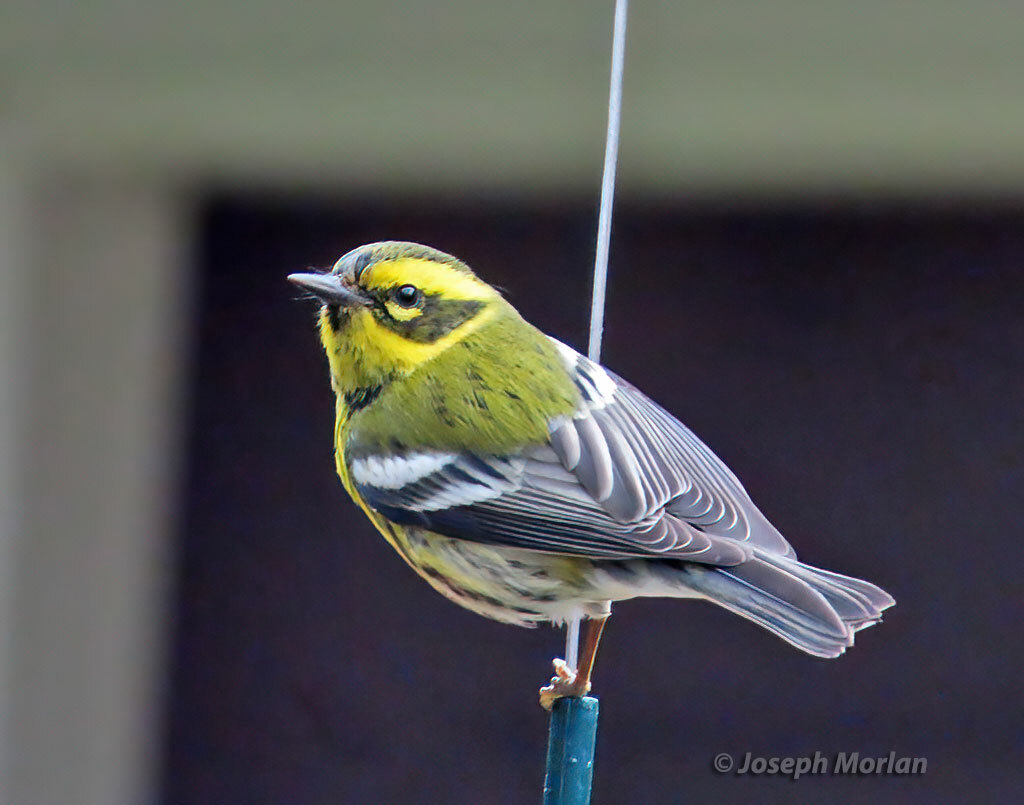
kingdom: Animalia
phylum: Chordata
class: Aves
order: Passeriformes
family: Parulidae
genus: Setophaga
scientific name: Setophaga townsendi
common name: Townsend's warbler
